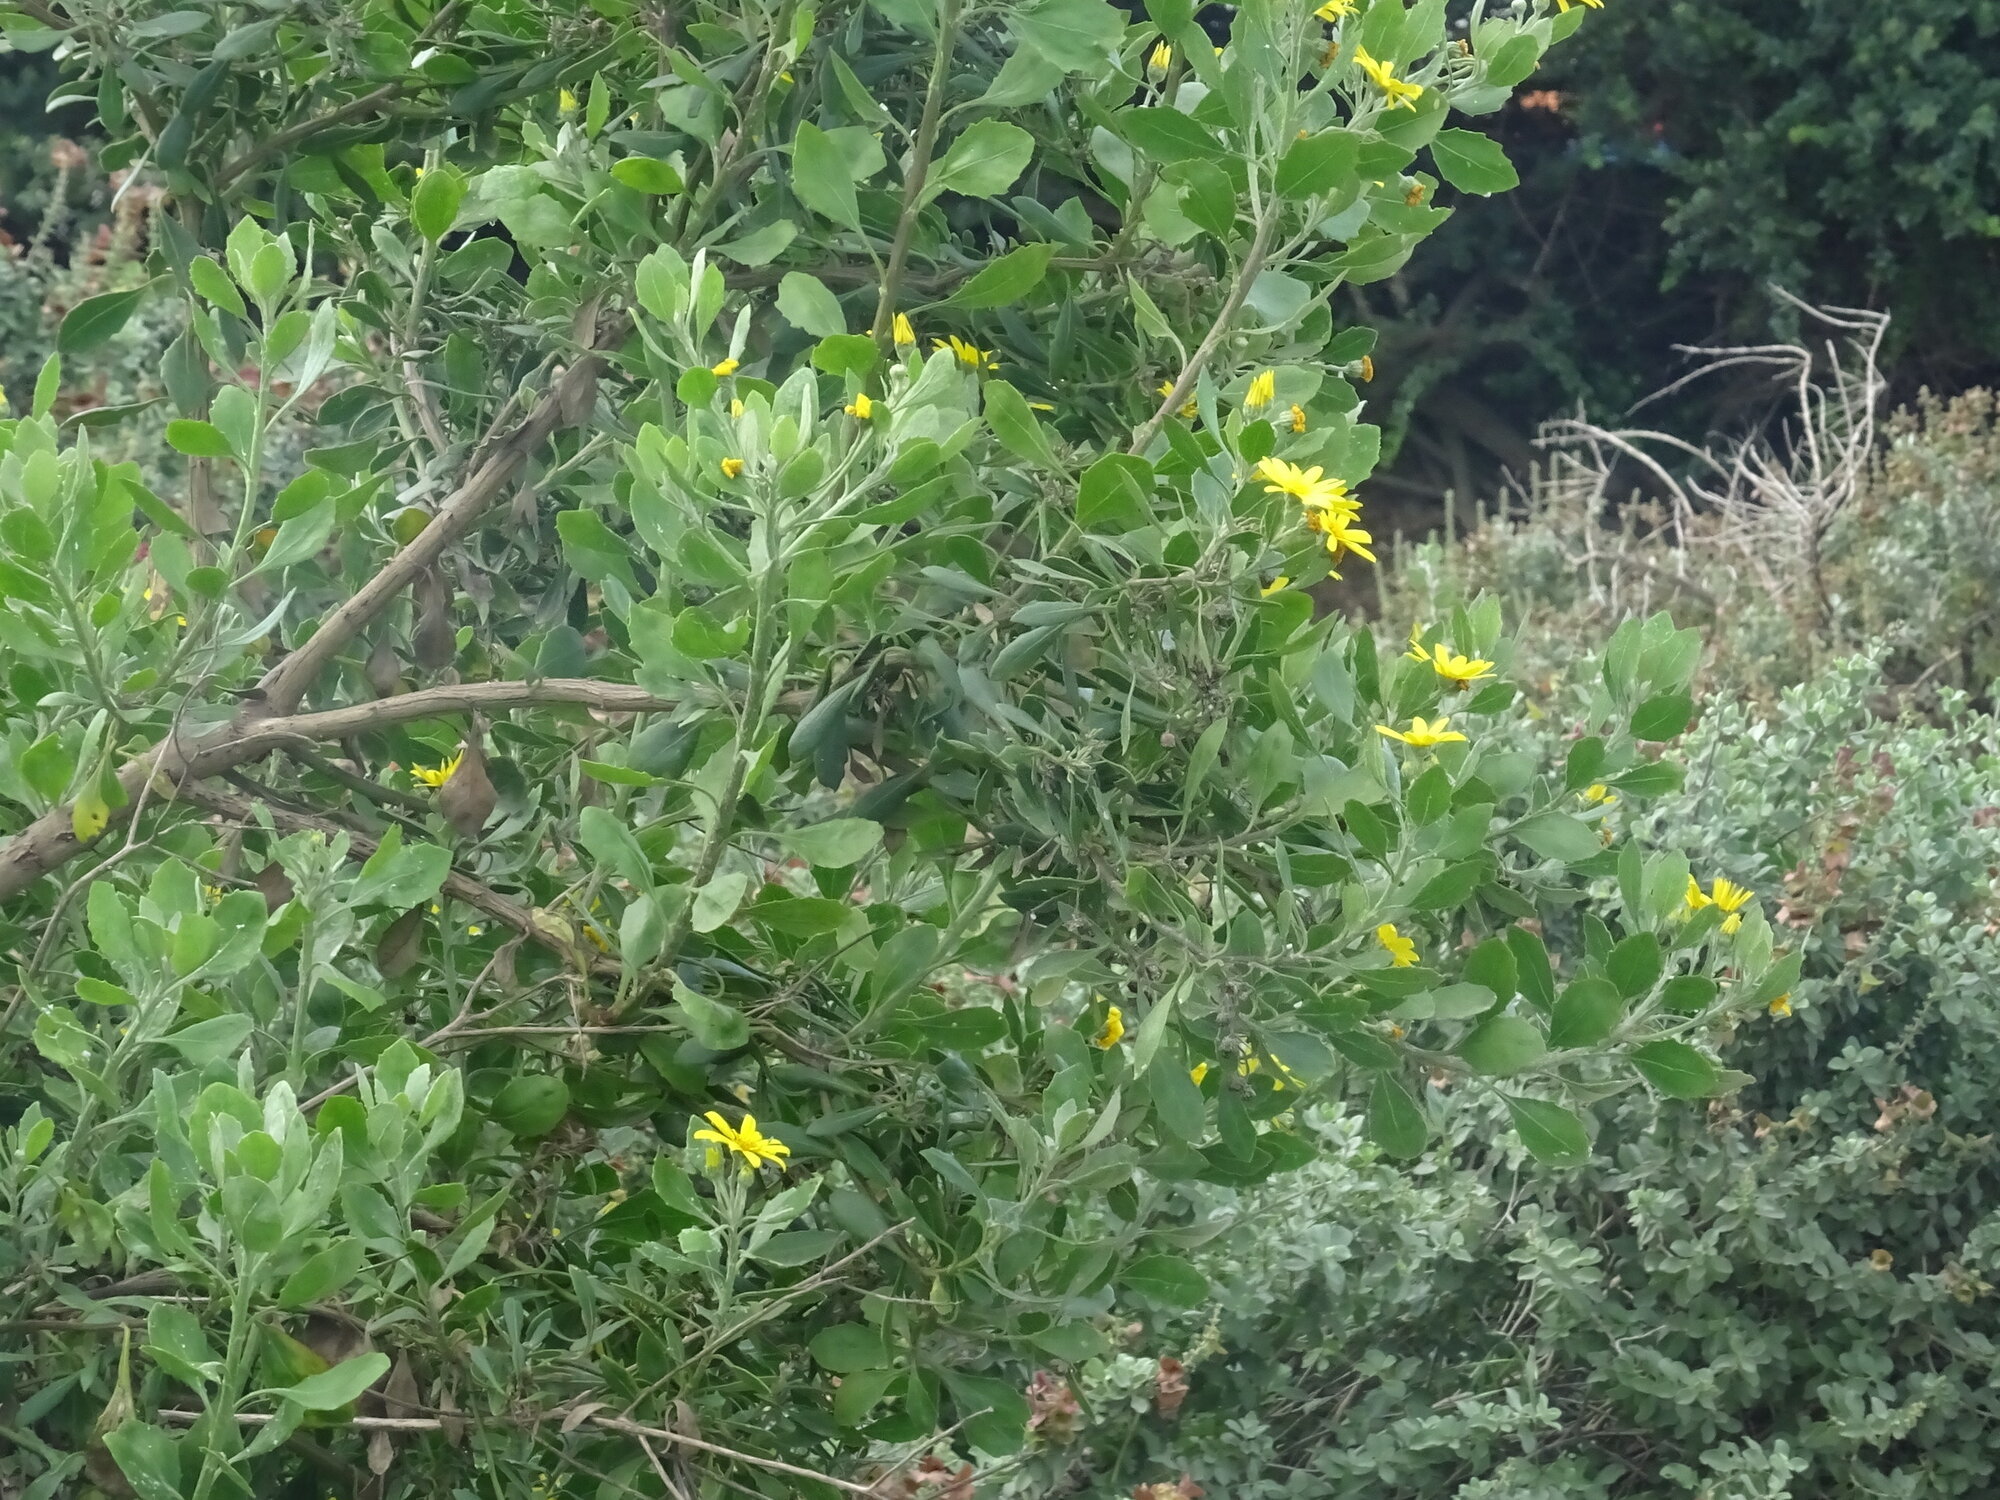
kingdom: Plantae
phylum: Tracheophyta
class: Magnoliopsida
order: Asterales
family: Asteraceae
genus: Osteospermum
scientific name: Osteospermum moniliferum
